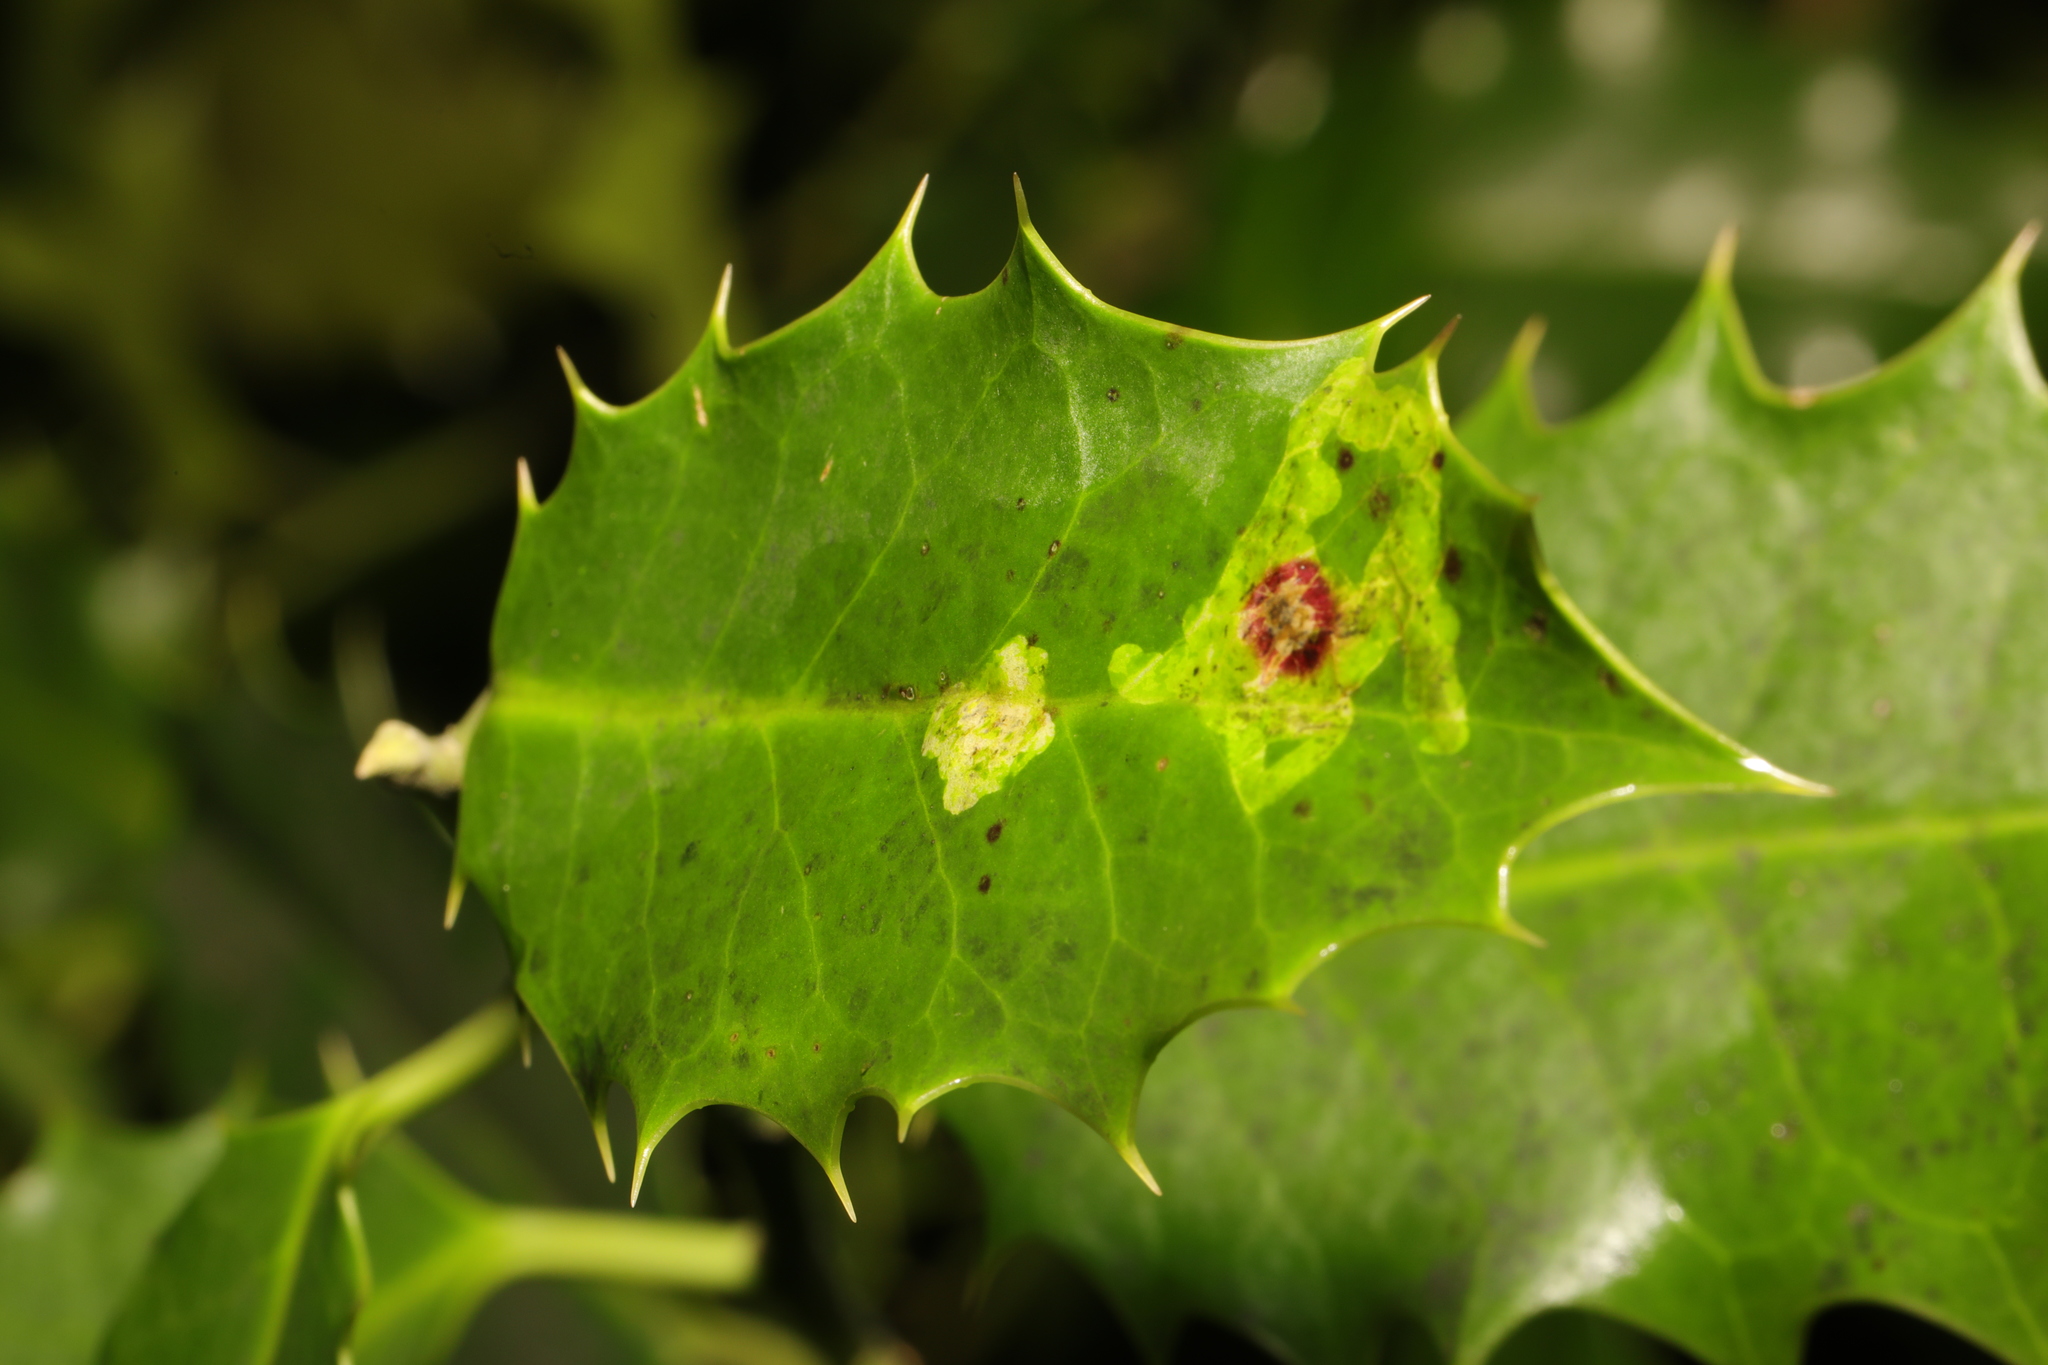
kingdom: Animalia
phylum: Arthropoda
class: Insecta
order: Diptera
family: Agromyzidae
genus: Phytomyza
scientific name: Phytomyza ilicis
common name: Holly leafminer
